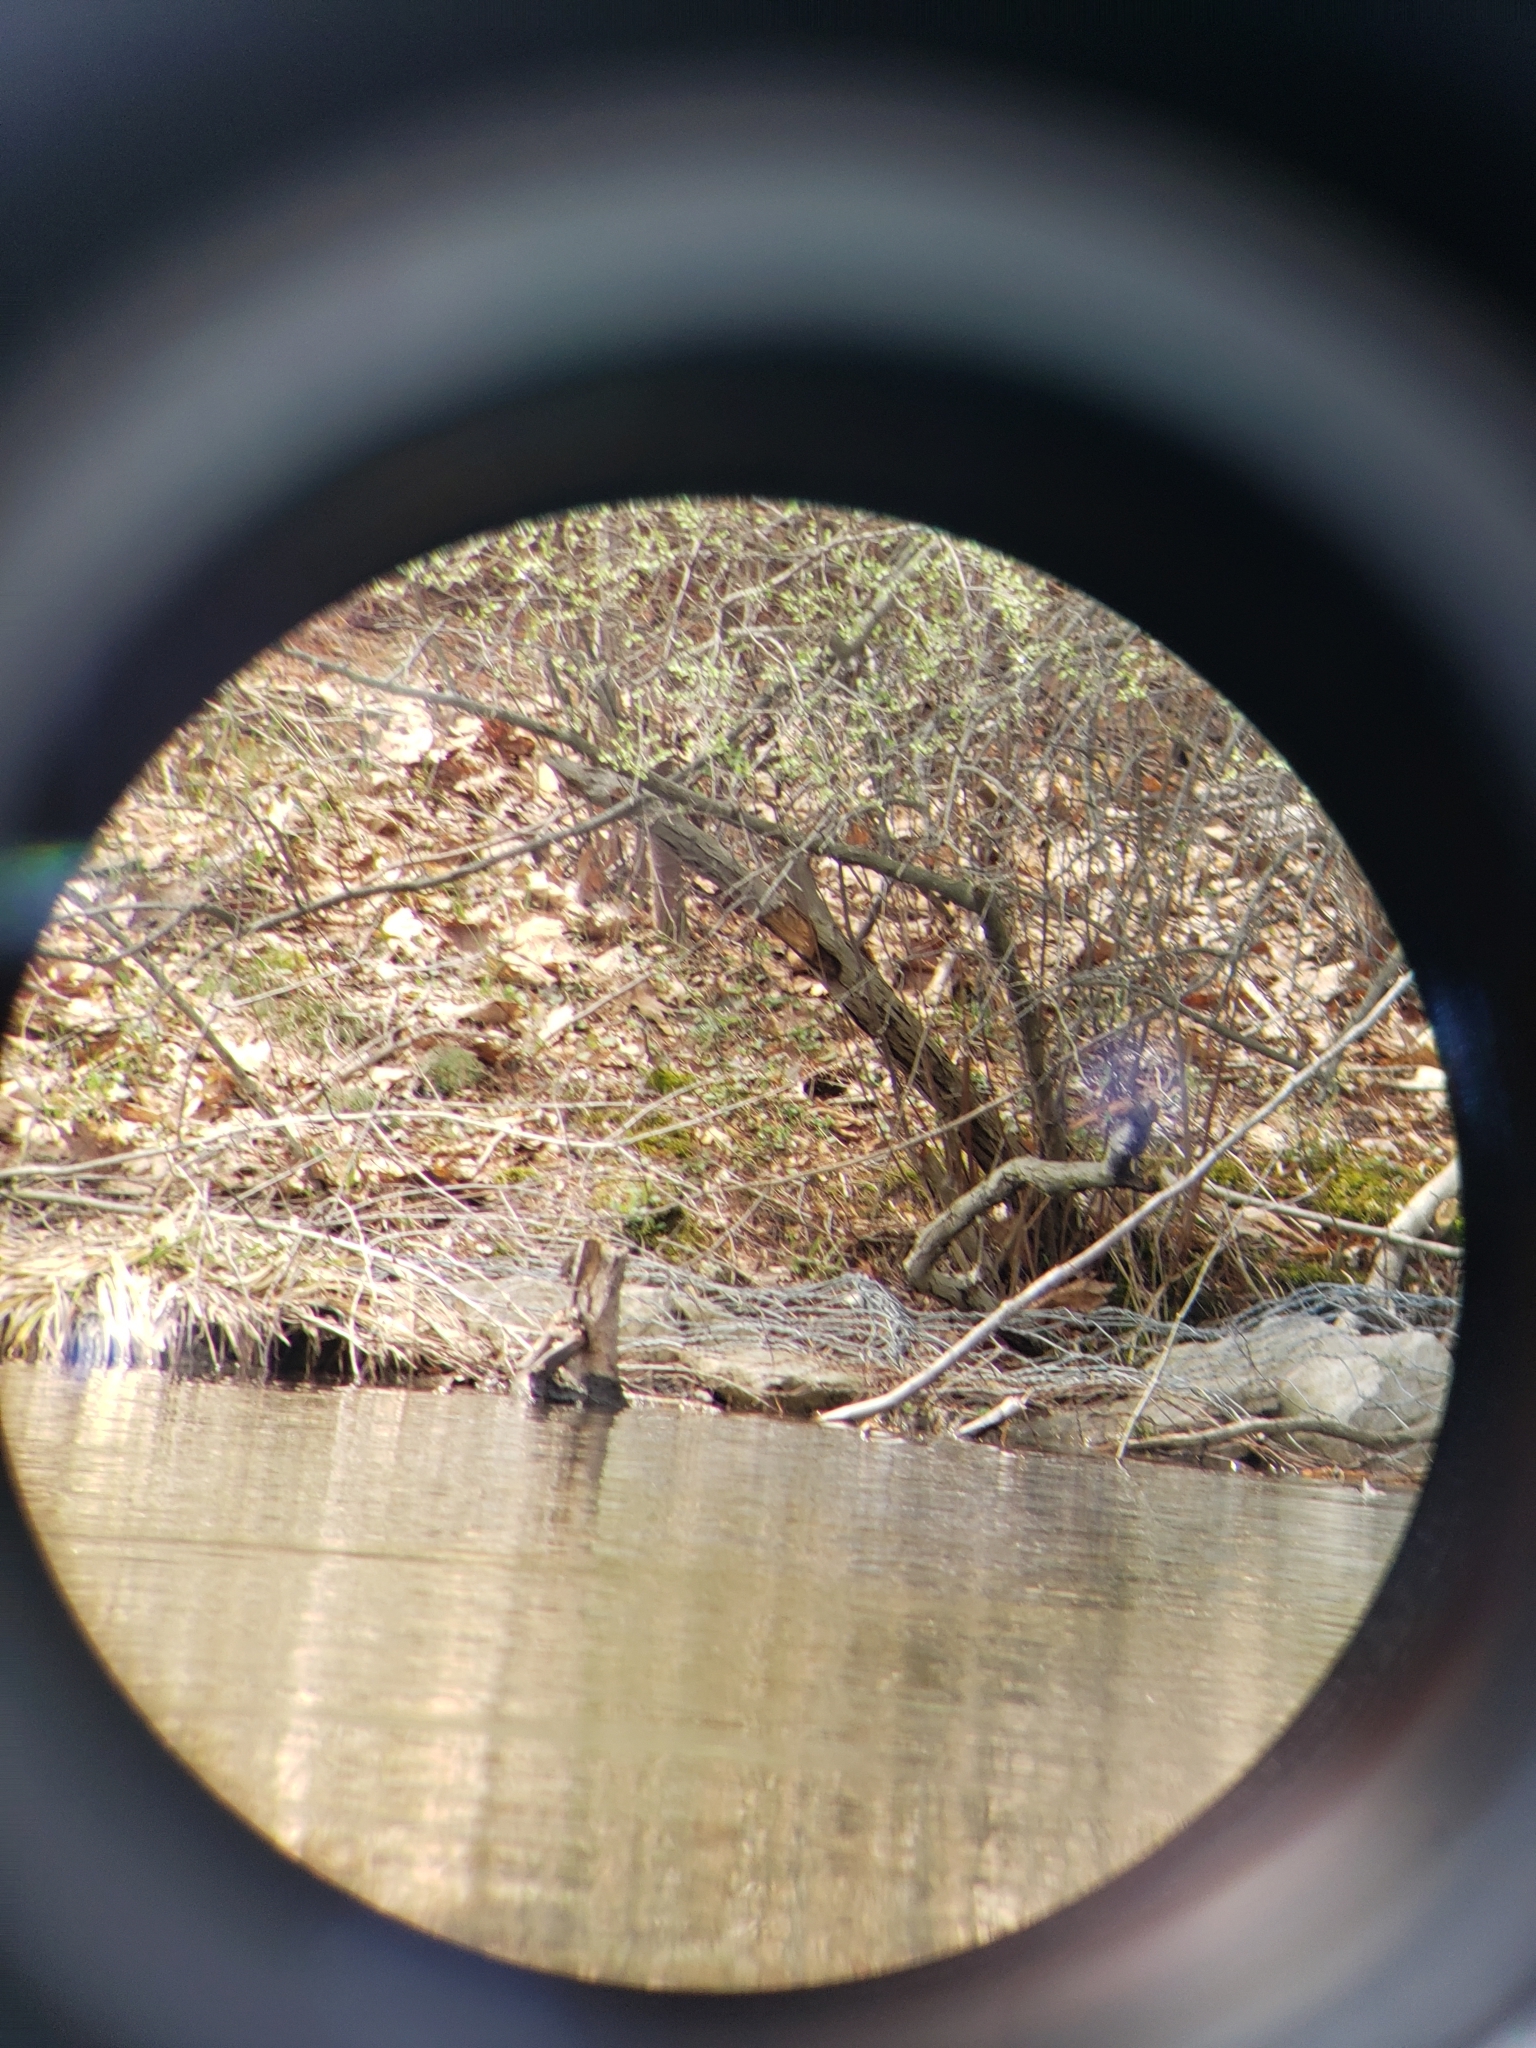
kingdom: Animalia
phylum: Chordata
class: Aves
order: Podicipediformes
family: Podicipedidae
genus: Podilymbus
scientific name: Podilymbus podiceps
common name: Pied-billed grebe
